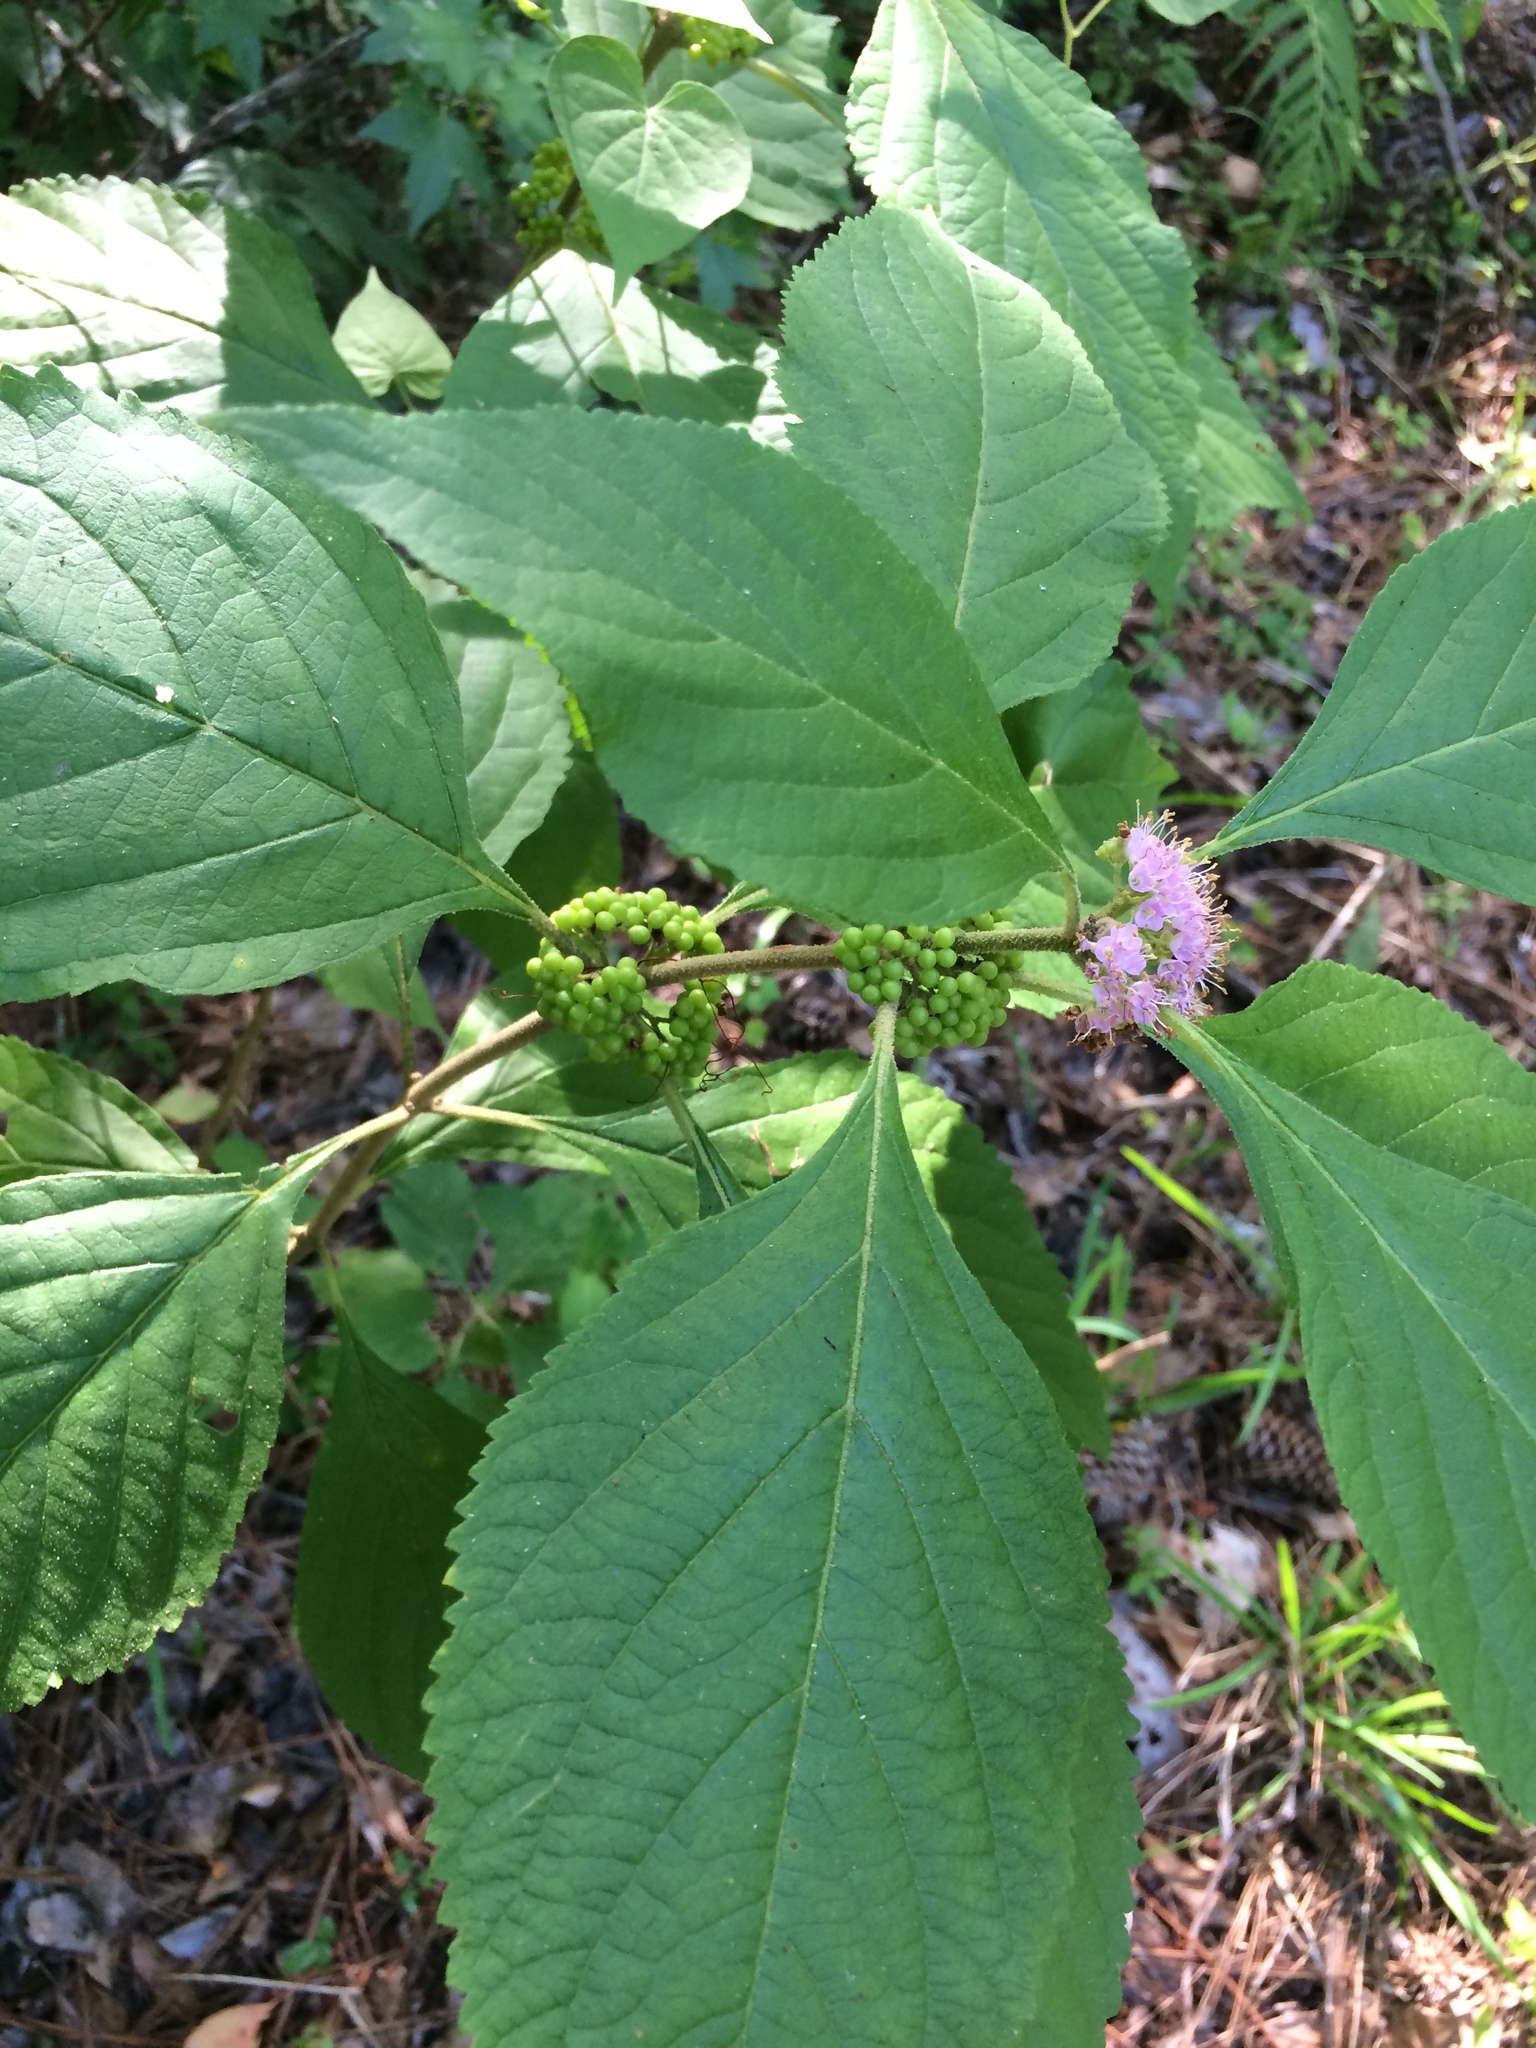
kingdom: Plantae
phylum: Tracheophyta
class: Magnoliopsida
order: Lamiales
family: Lamiaceae
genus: Callicarpa
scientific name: Callicarpa americana
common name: American beautyberry
